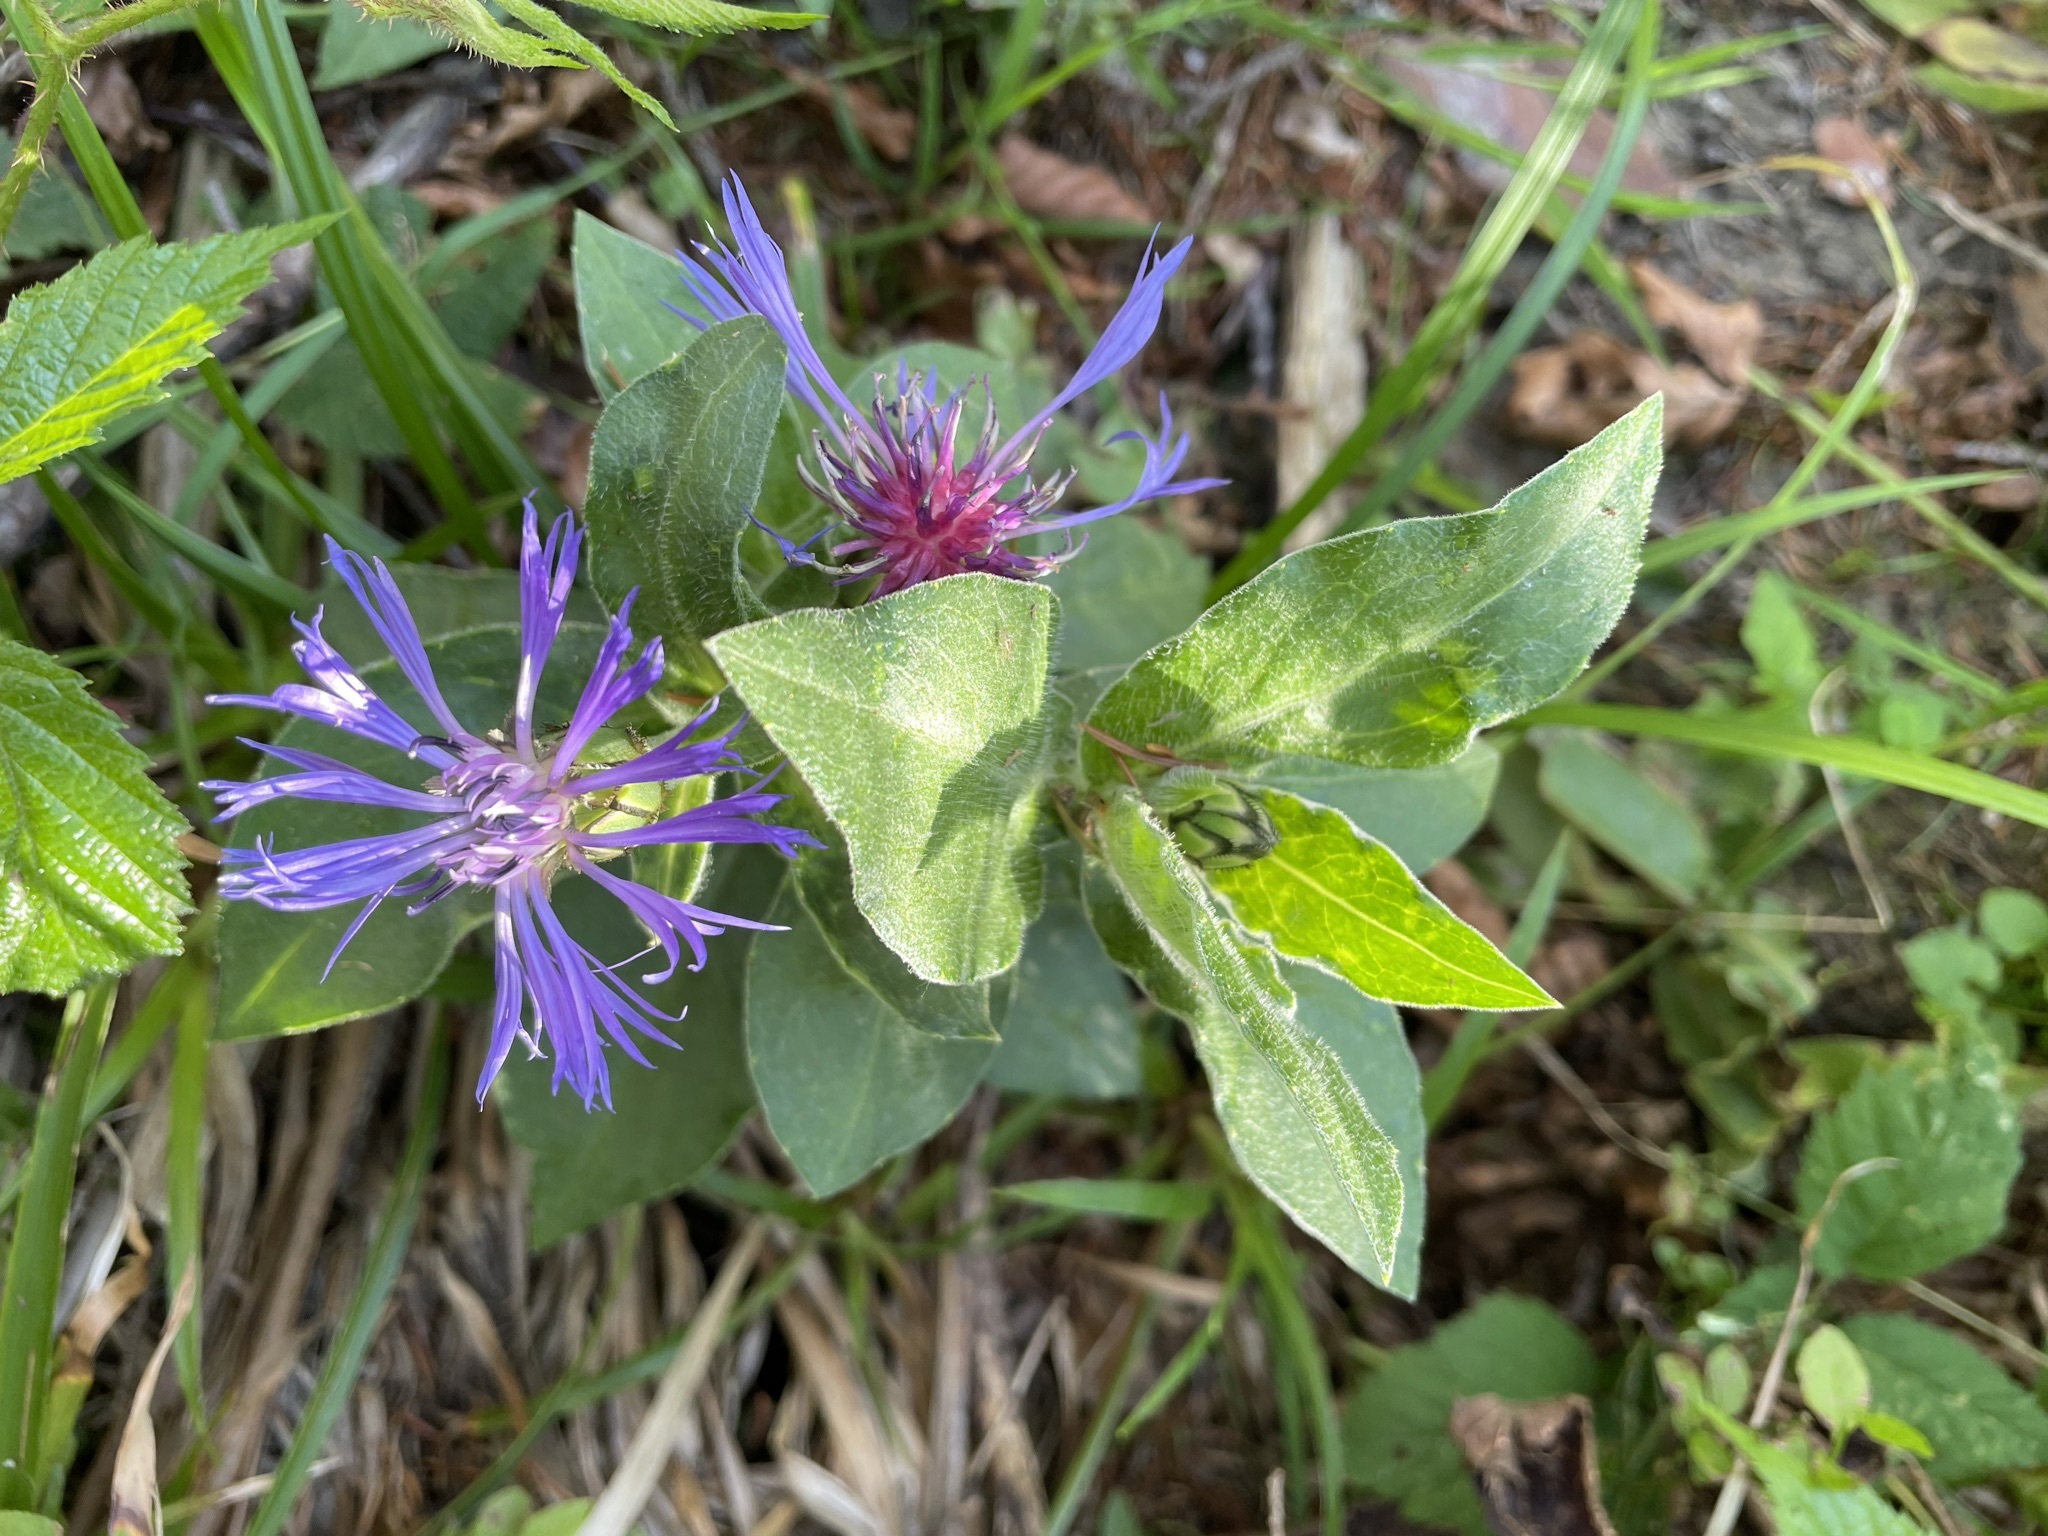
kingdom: Plantae
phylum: Tracheophyta
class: Magnoliopsida
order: Asterales
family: Asteraceae
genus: Centaurea
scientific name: Centaurea montana
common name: Perennial cornflower
